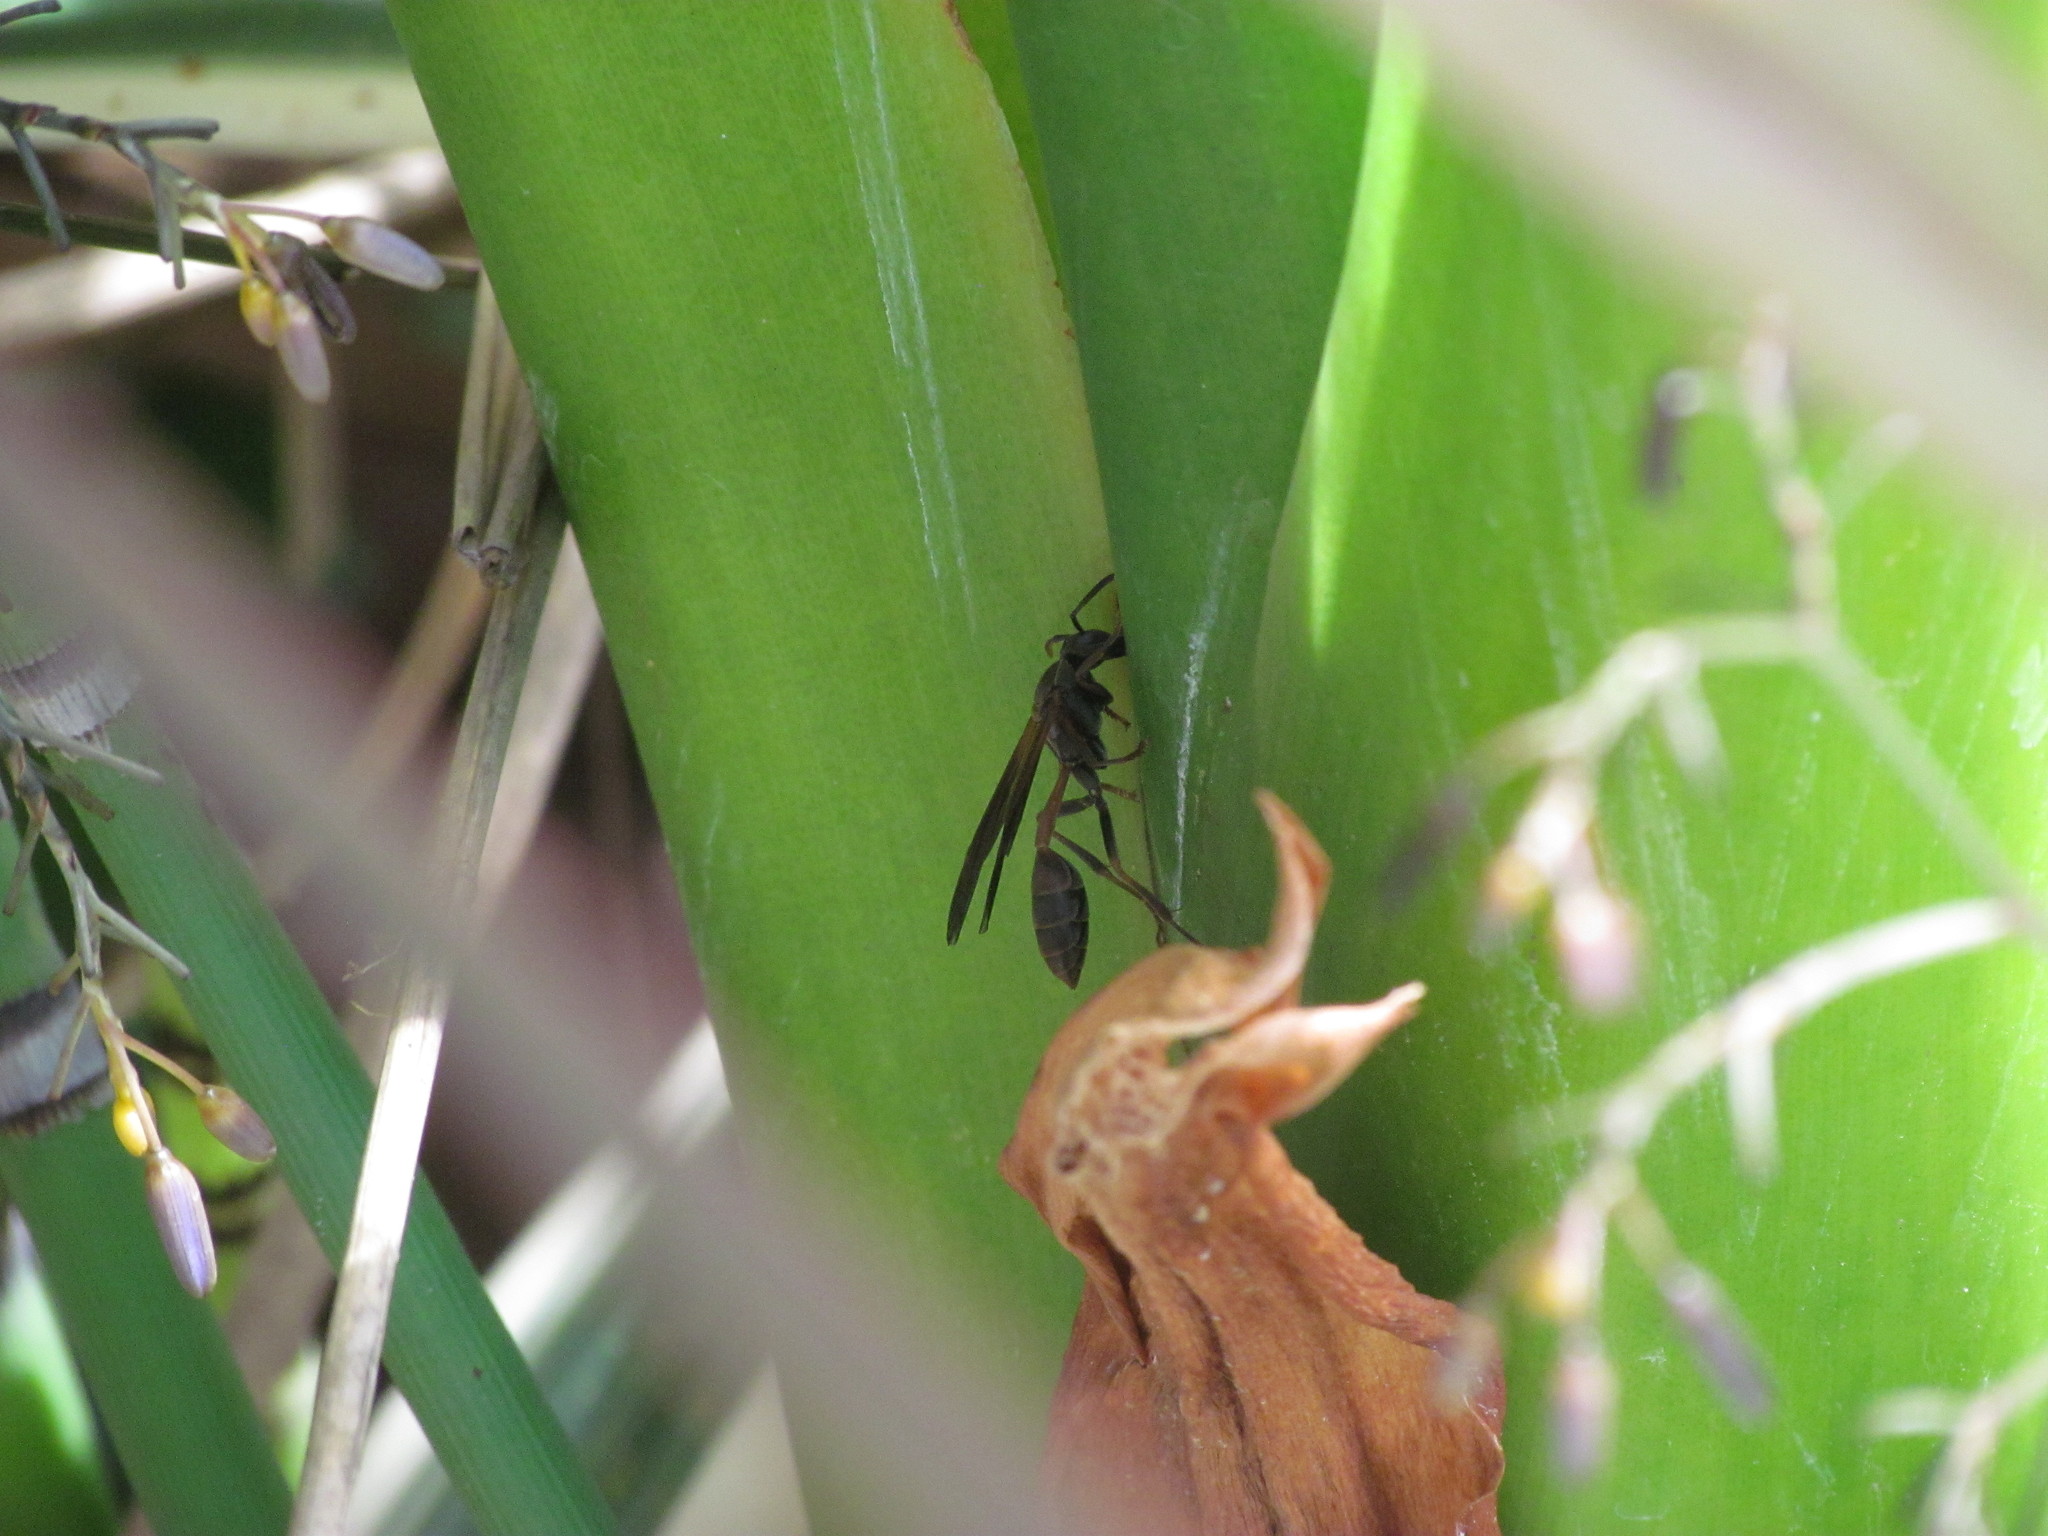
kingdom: Animalia
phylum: Arthropoda
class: Insecta
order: Hymenoptera
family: Vespidae
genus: Mischocyttarus
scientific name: Mischocyttarus drewseni
